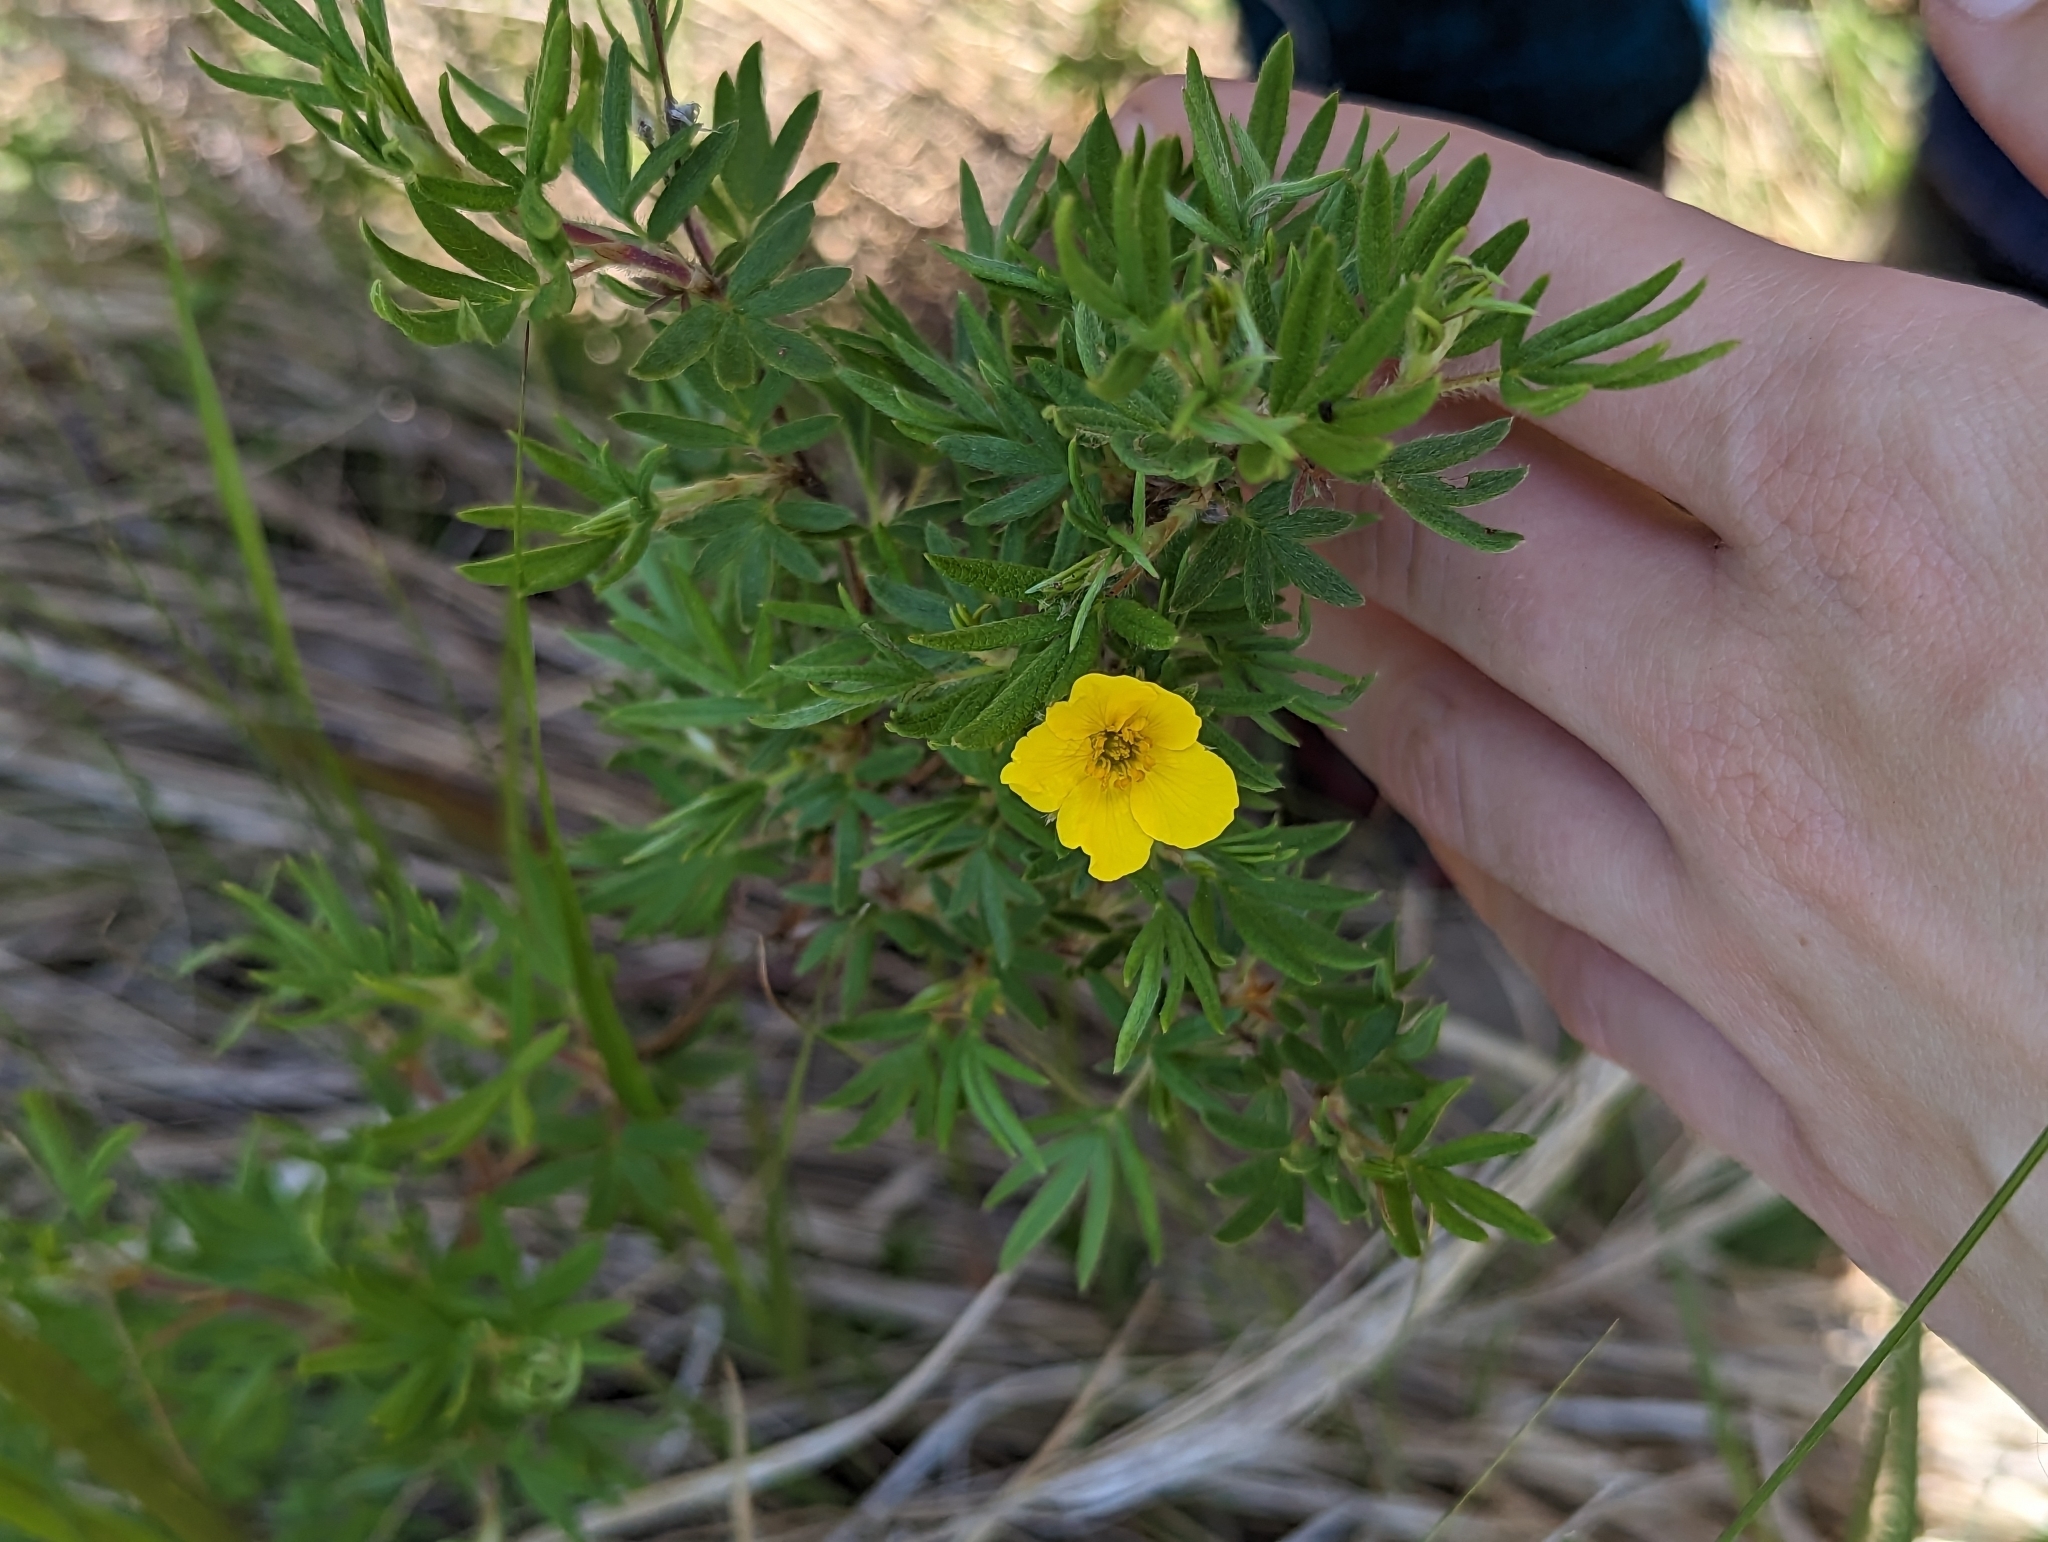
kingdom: Plantae
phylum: Tracheophyta
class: Magnoliopsida
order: Rosales
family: Rosaceae
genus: Dasiphora
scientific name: Dasiphora fruticosa
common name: Shrubby cinquefoil
